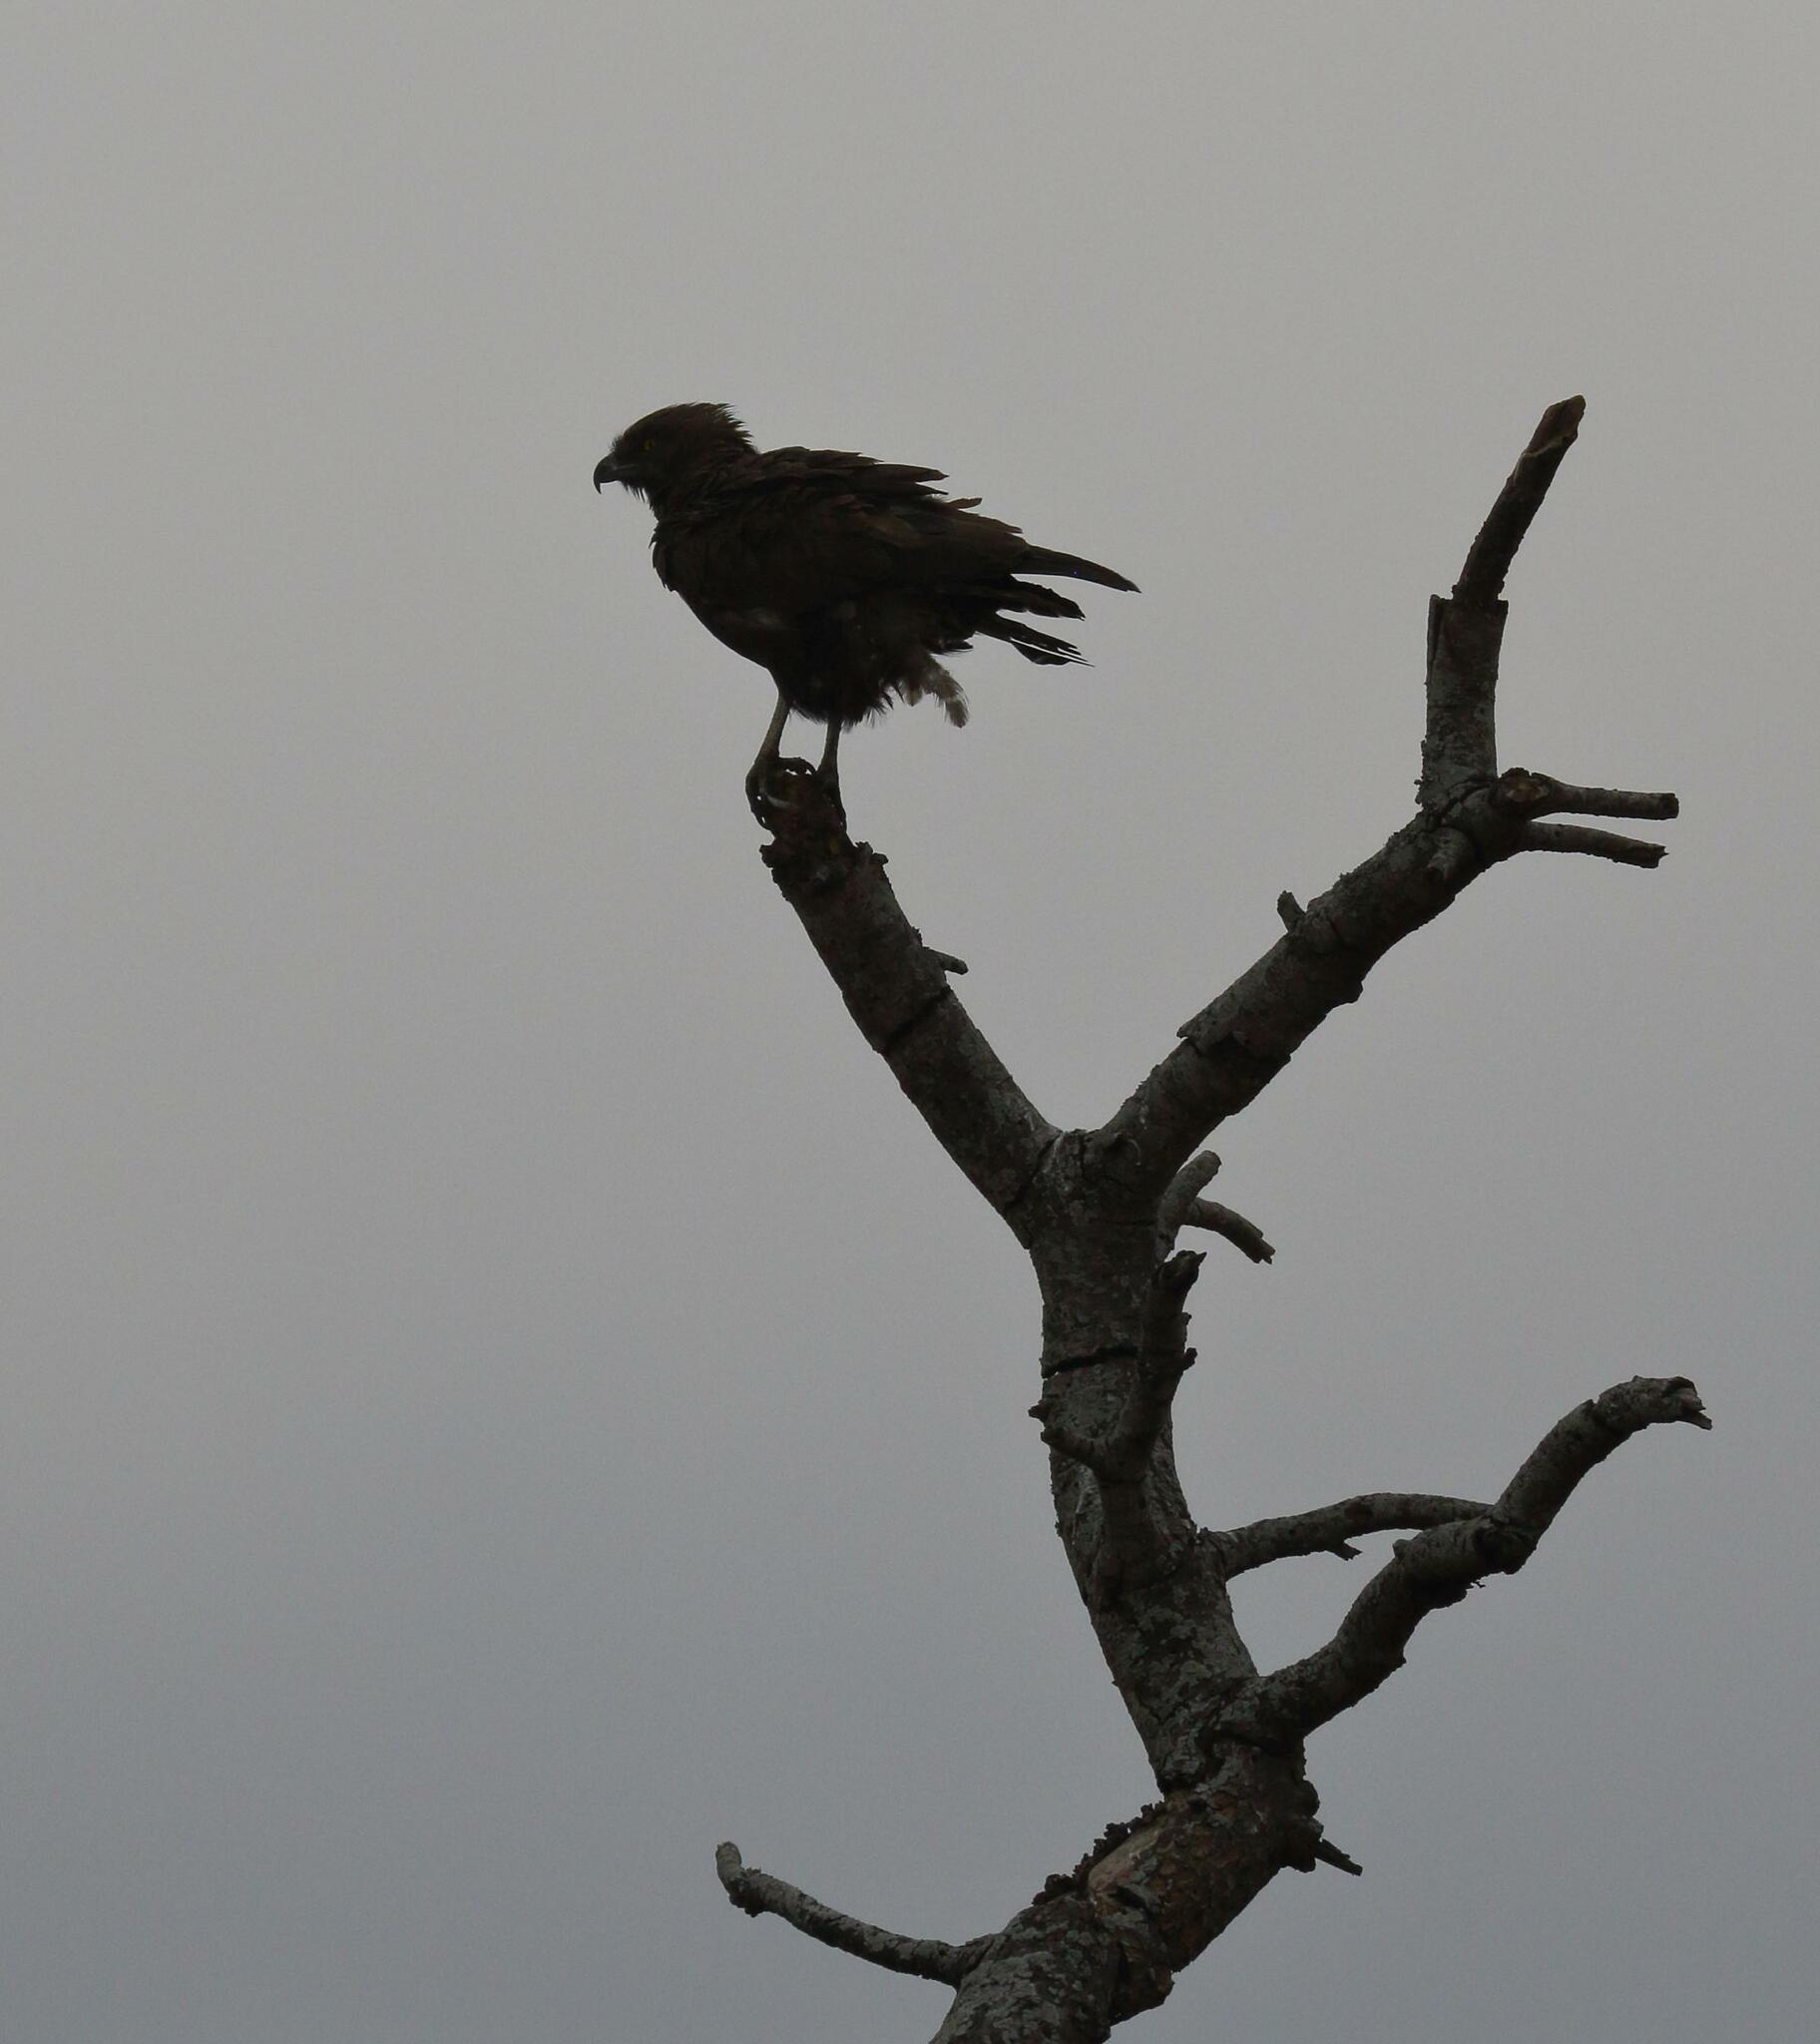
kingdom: Animalia
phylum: Chordata
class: Aves
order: Accipitriformes
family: Accipitridae
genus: Circaetus
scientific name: Circaetus cinereus
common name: Brown snake eagle
